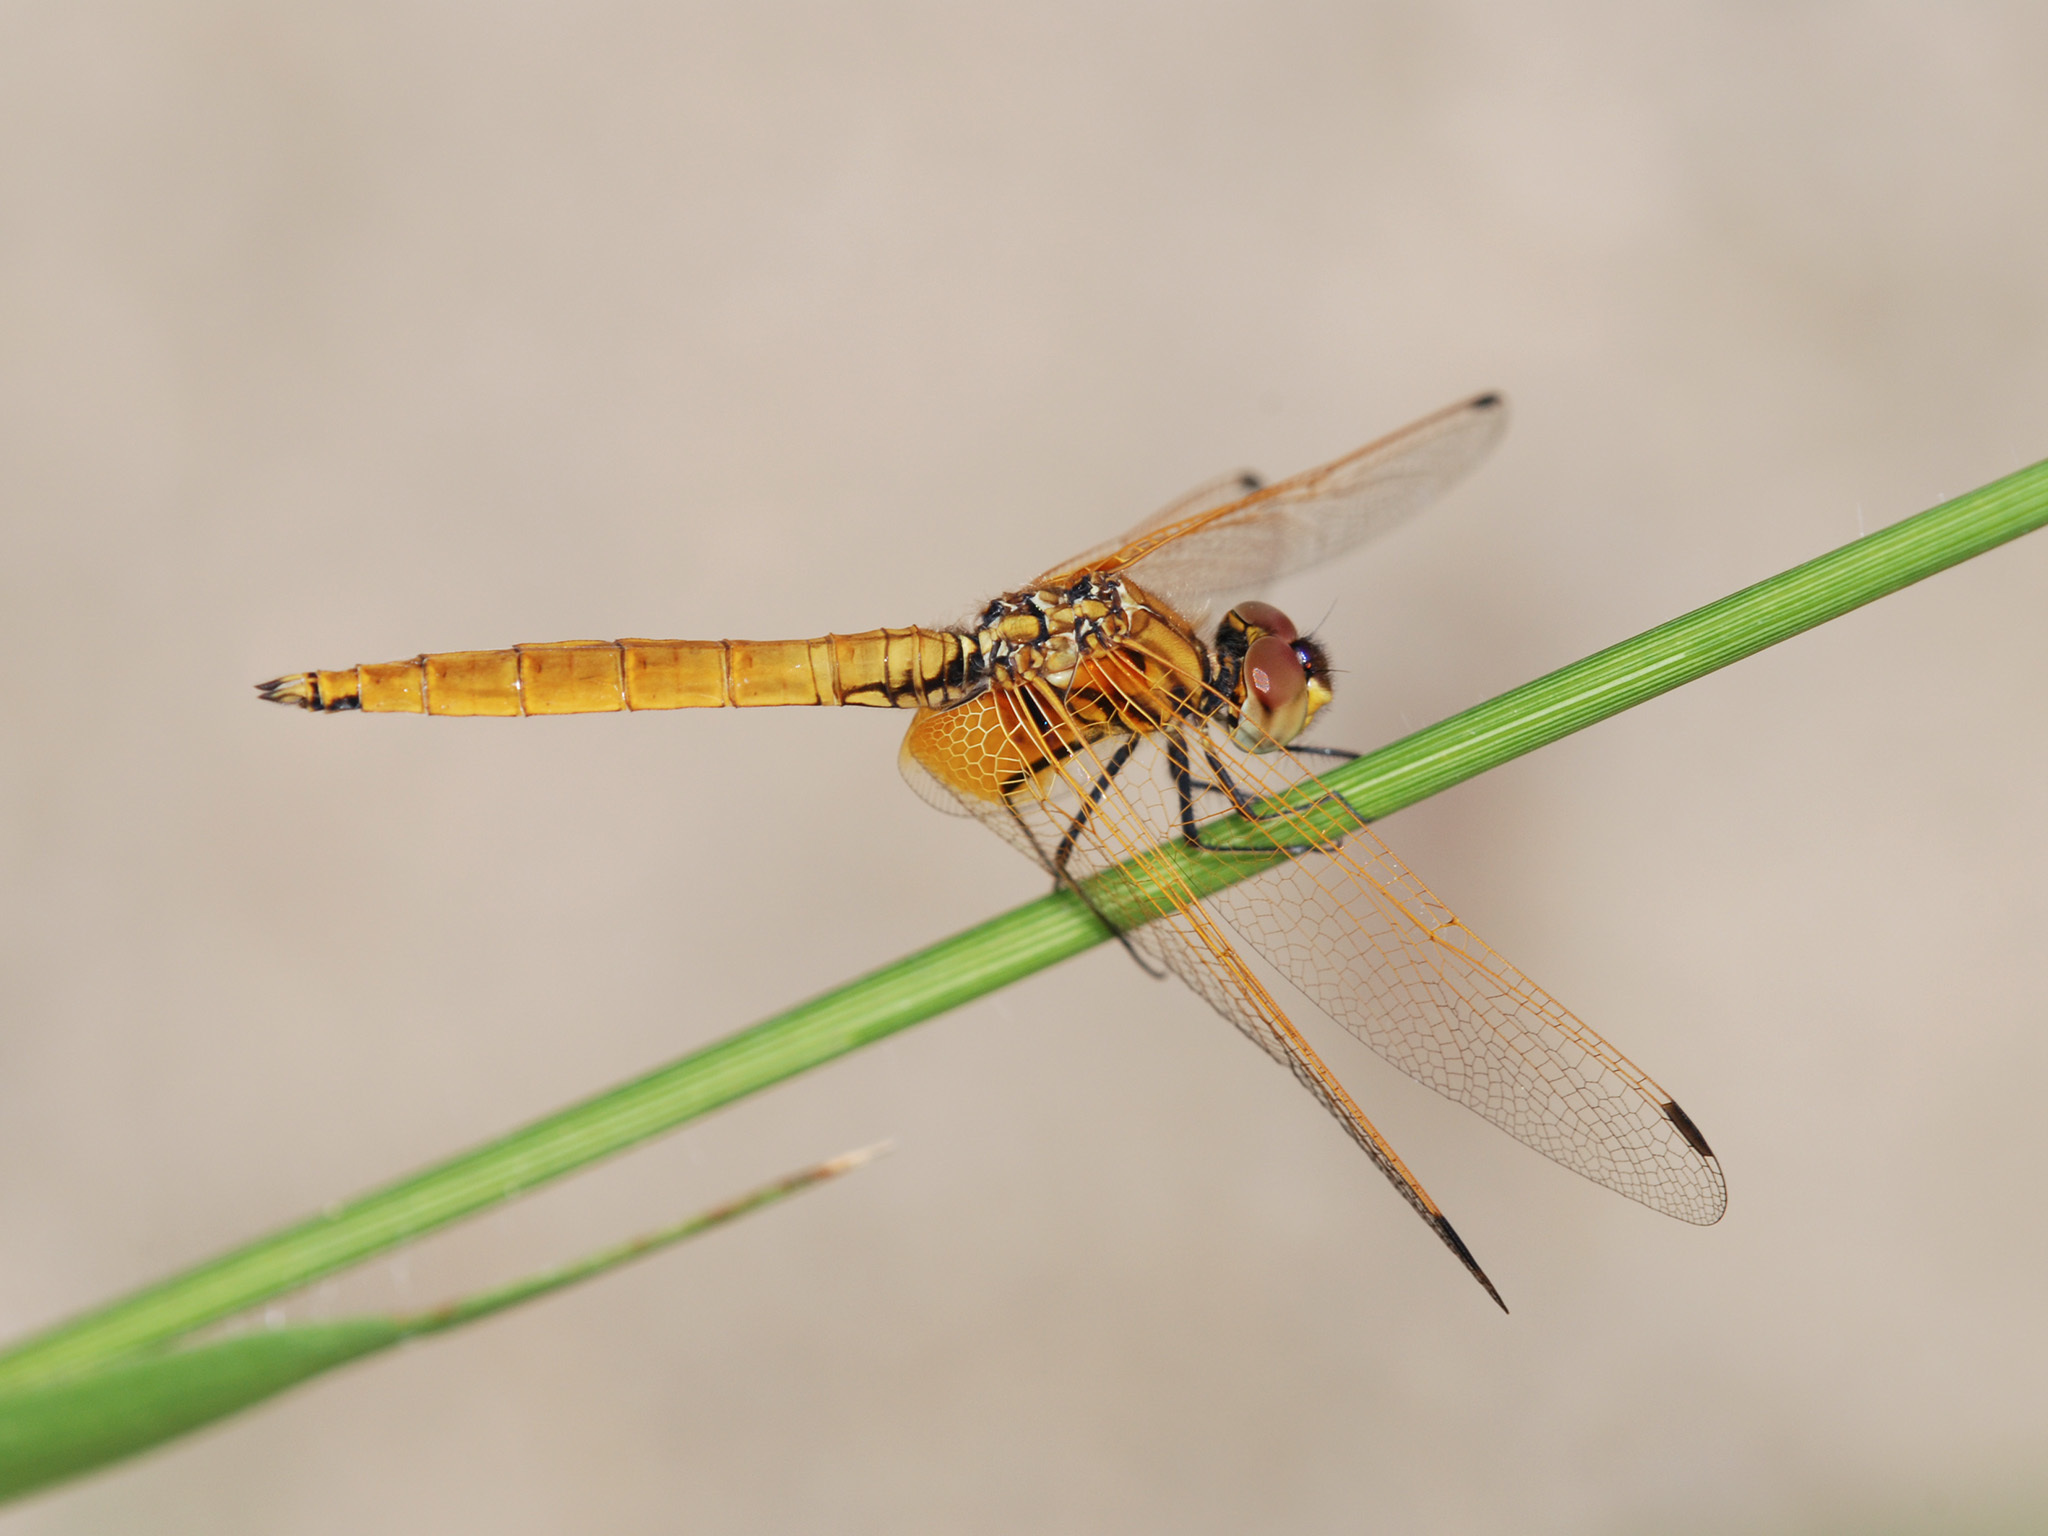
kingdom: Animalia
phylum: Arthropoda
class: Insecta
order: Odonata
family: Libellulidae
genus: Trithemis
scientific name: Trithemis aurora
